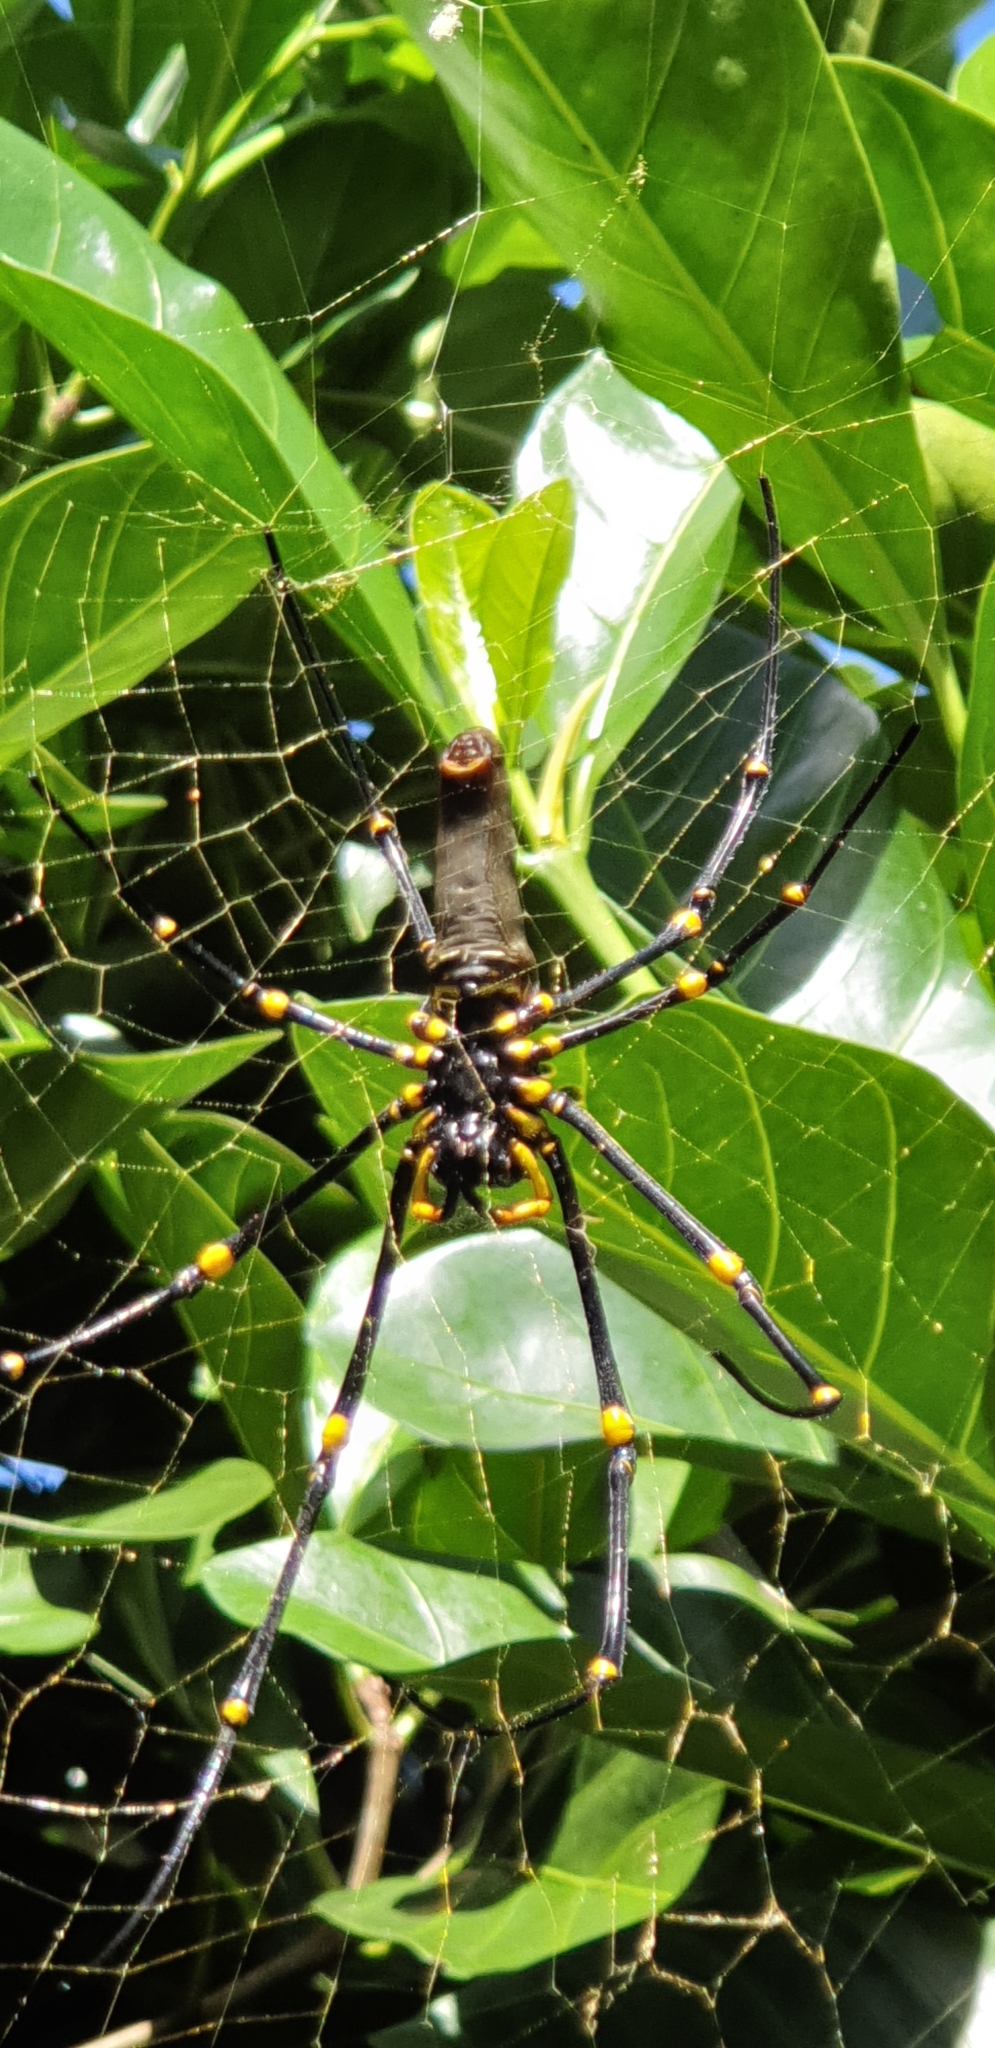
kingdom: Animalia
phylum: Arthropoda
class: Arachnida
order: Araneae
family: Araneidae
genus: Nephila
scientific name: Nephila pilipes
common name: Giant golden orb weaver
